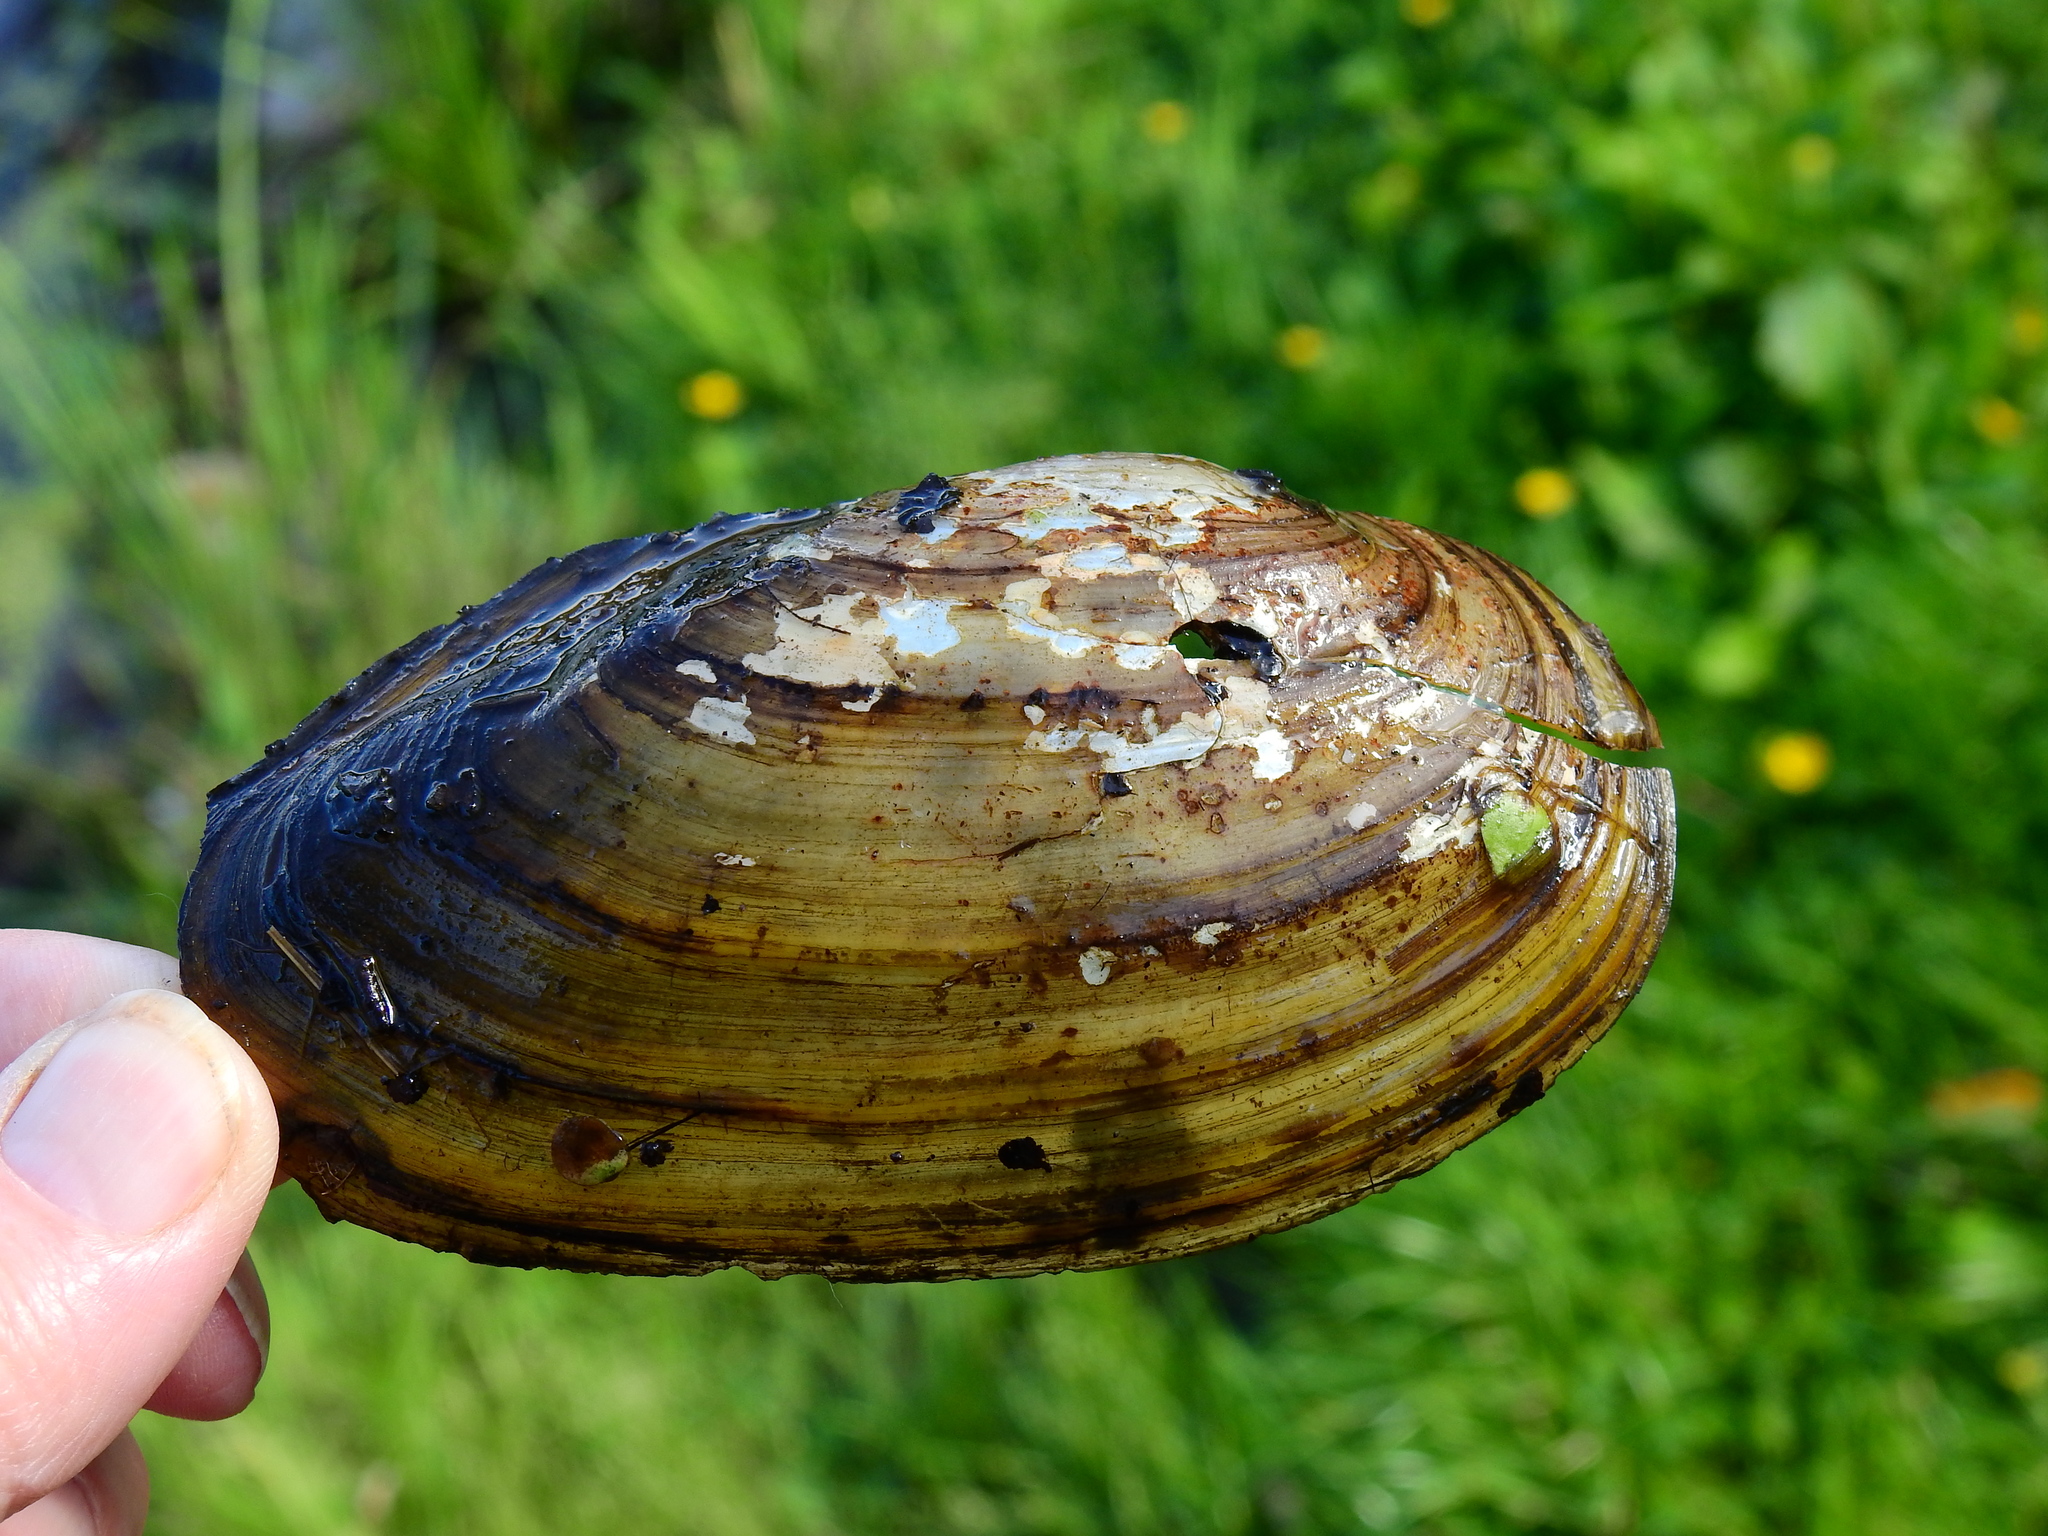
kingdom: Animalia
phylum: Mollusca
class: Bivalvia
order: Unionida
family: Unionidae
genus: Anodonta
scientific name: Anodonta cygnea
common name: Swan mussel
